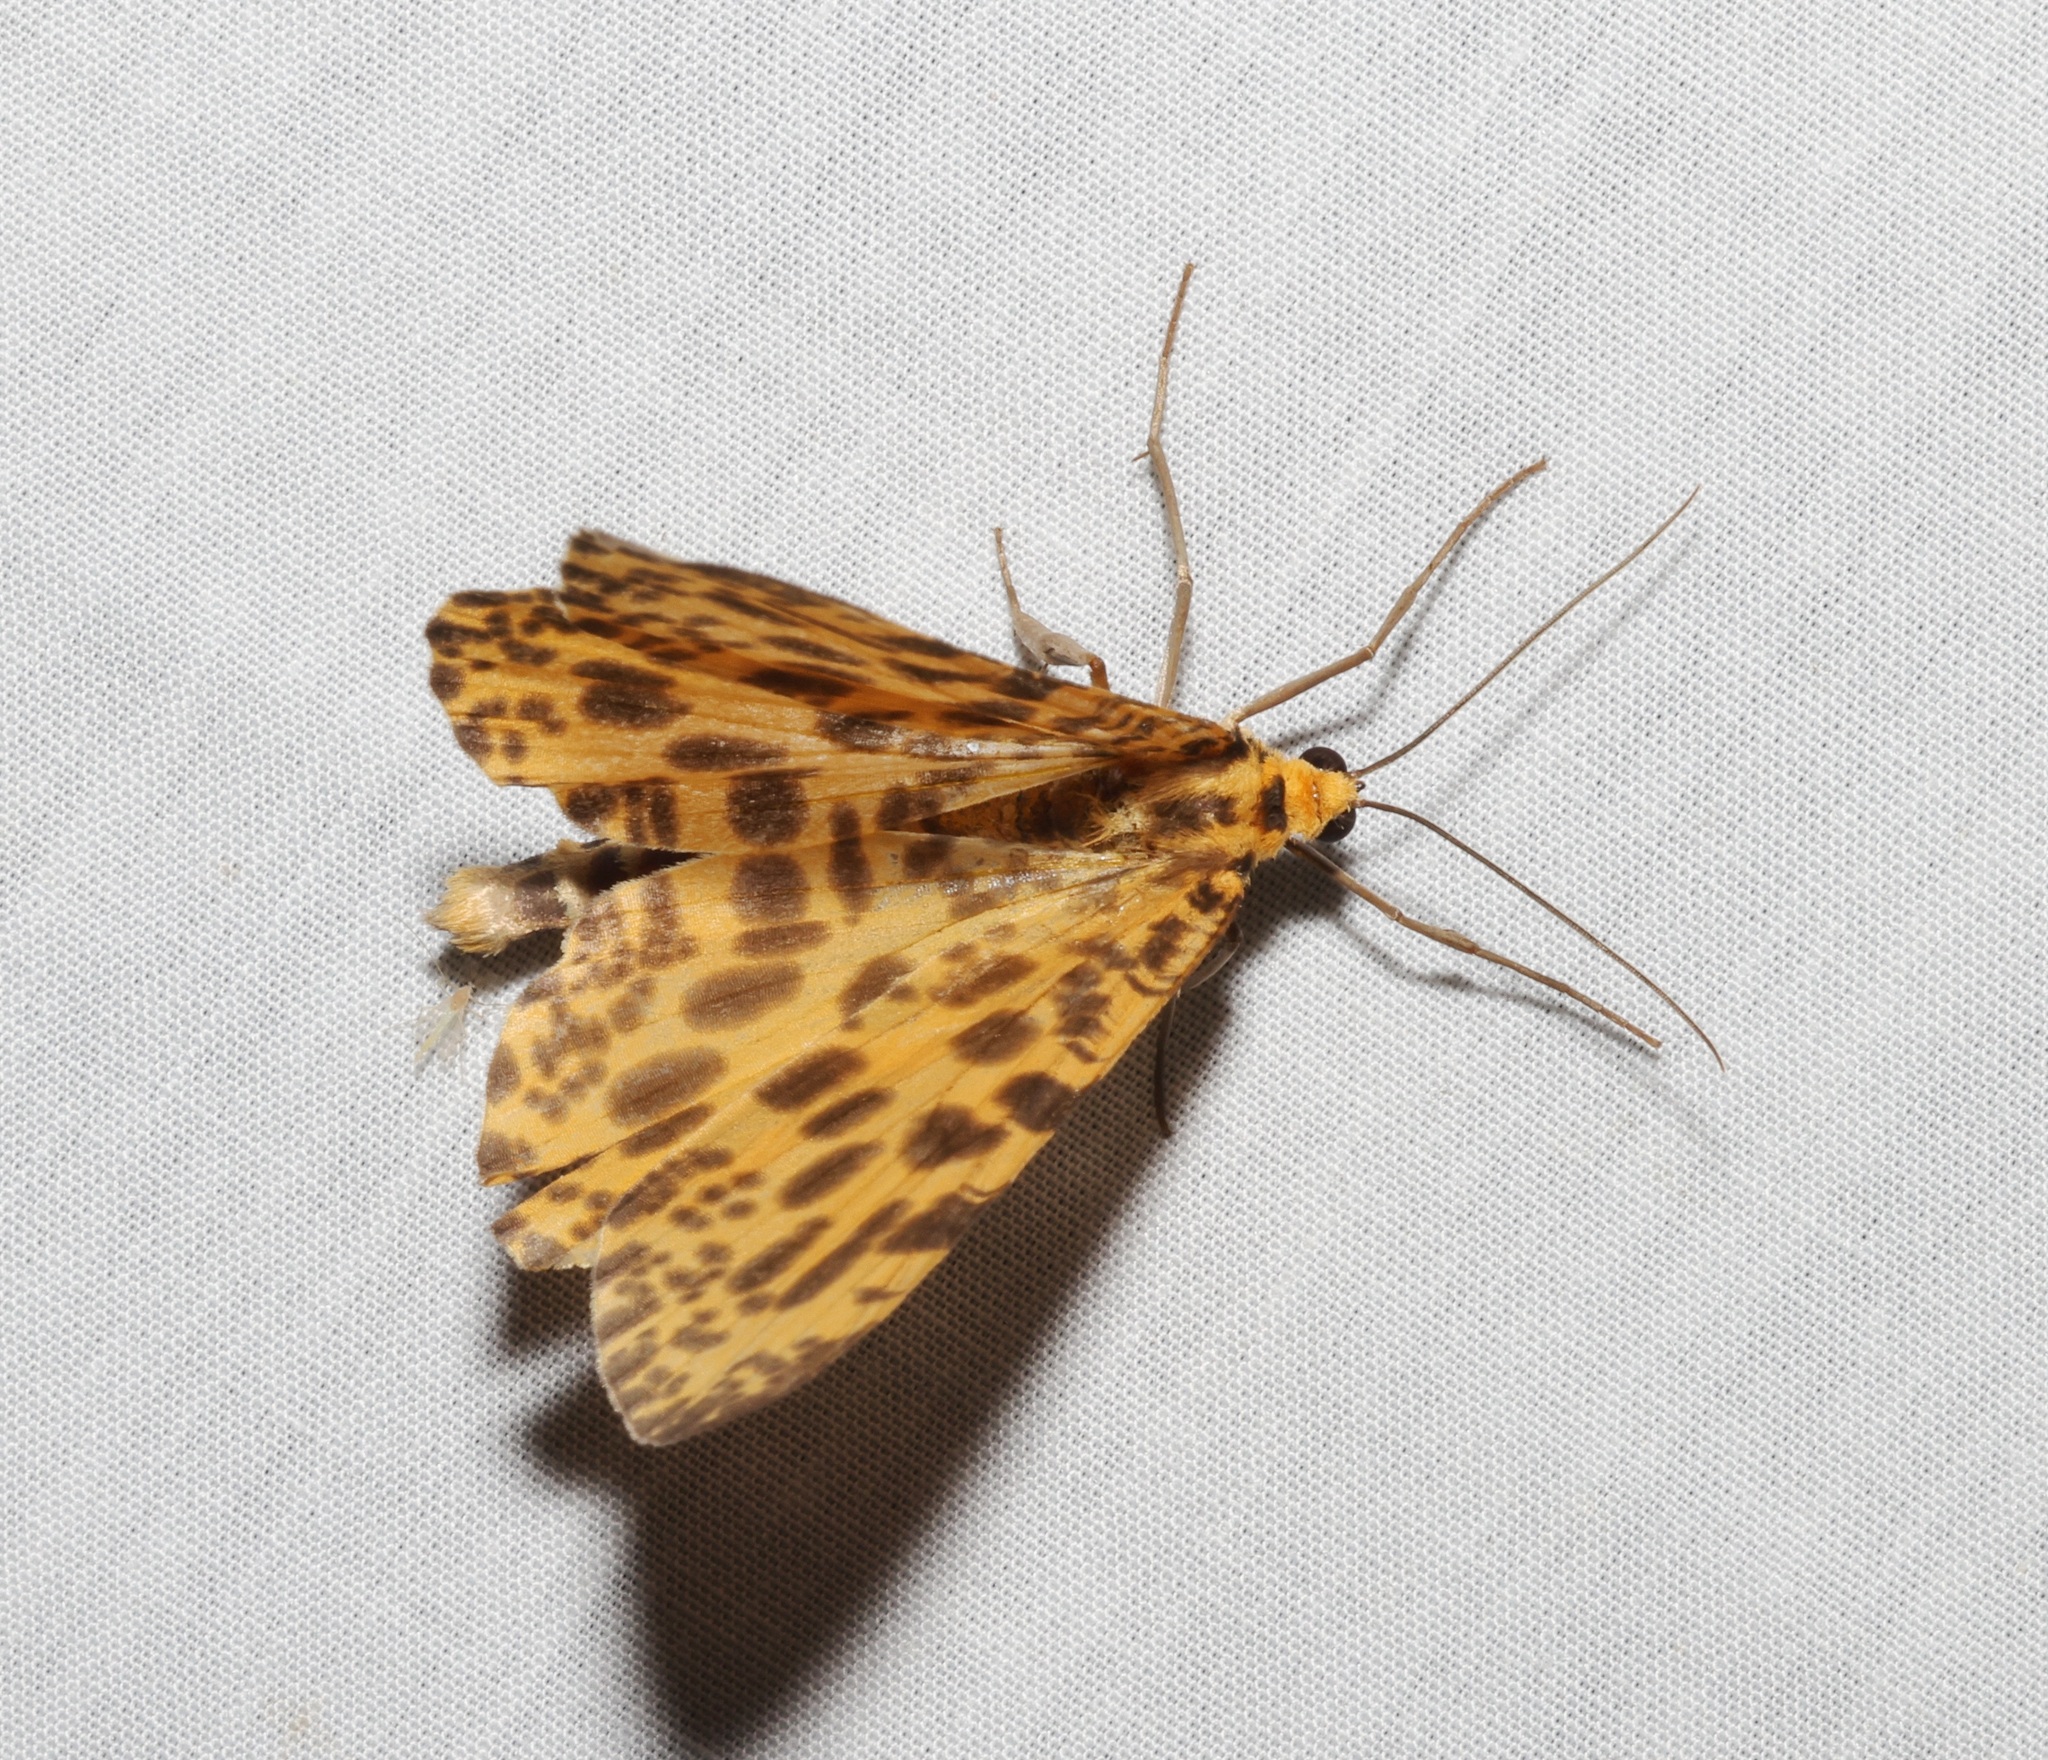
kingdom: Animalia
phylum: Arthropoda
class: Insecta
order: Lepidoptera
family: Geometridae
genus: Obeidia
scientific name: Obeidia Epobeidia tigrata
